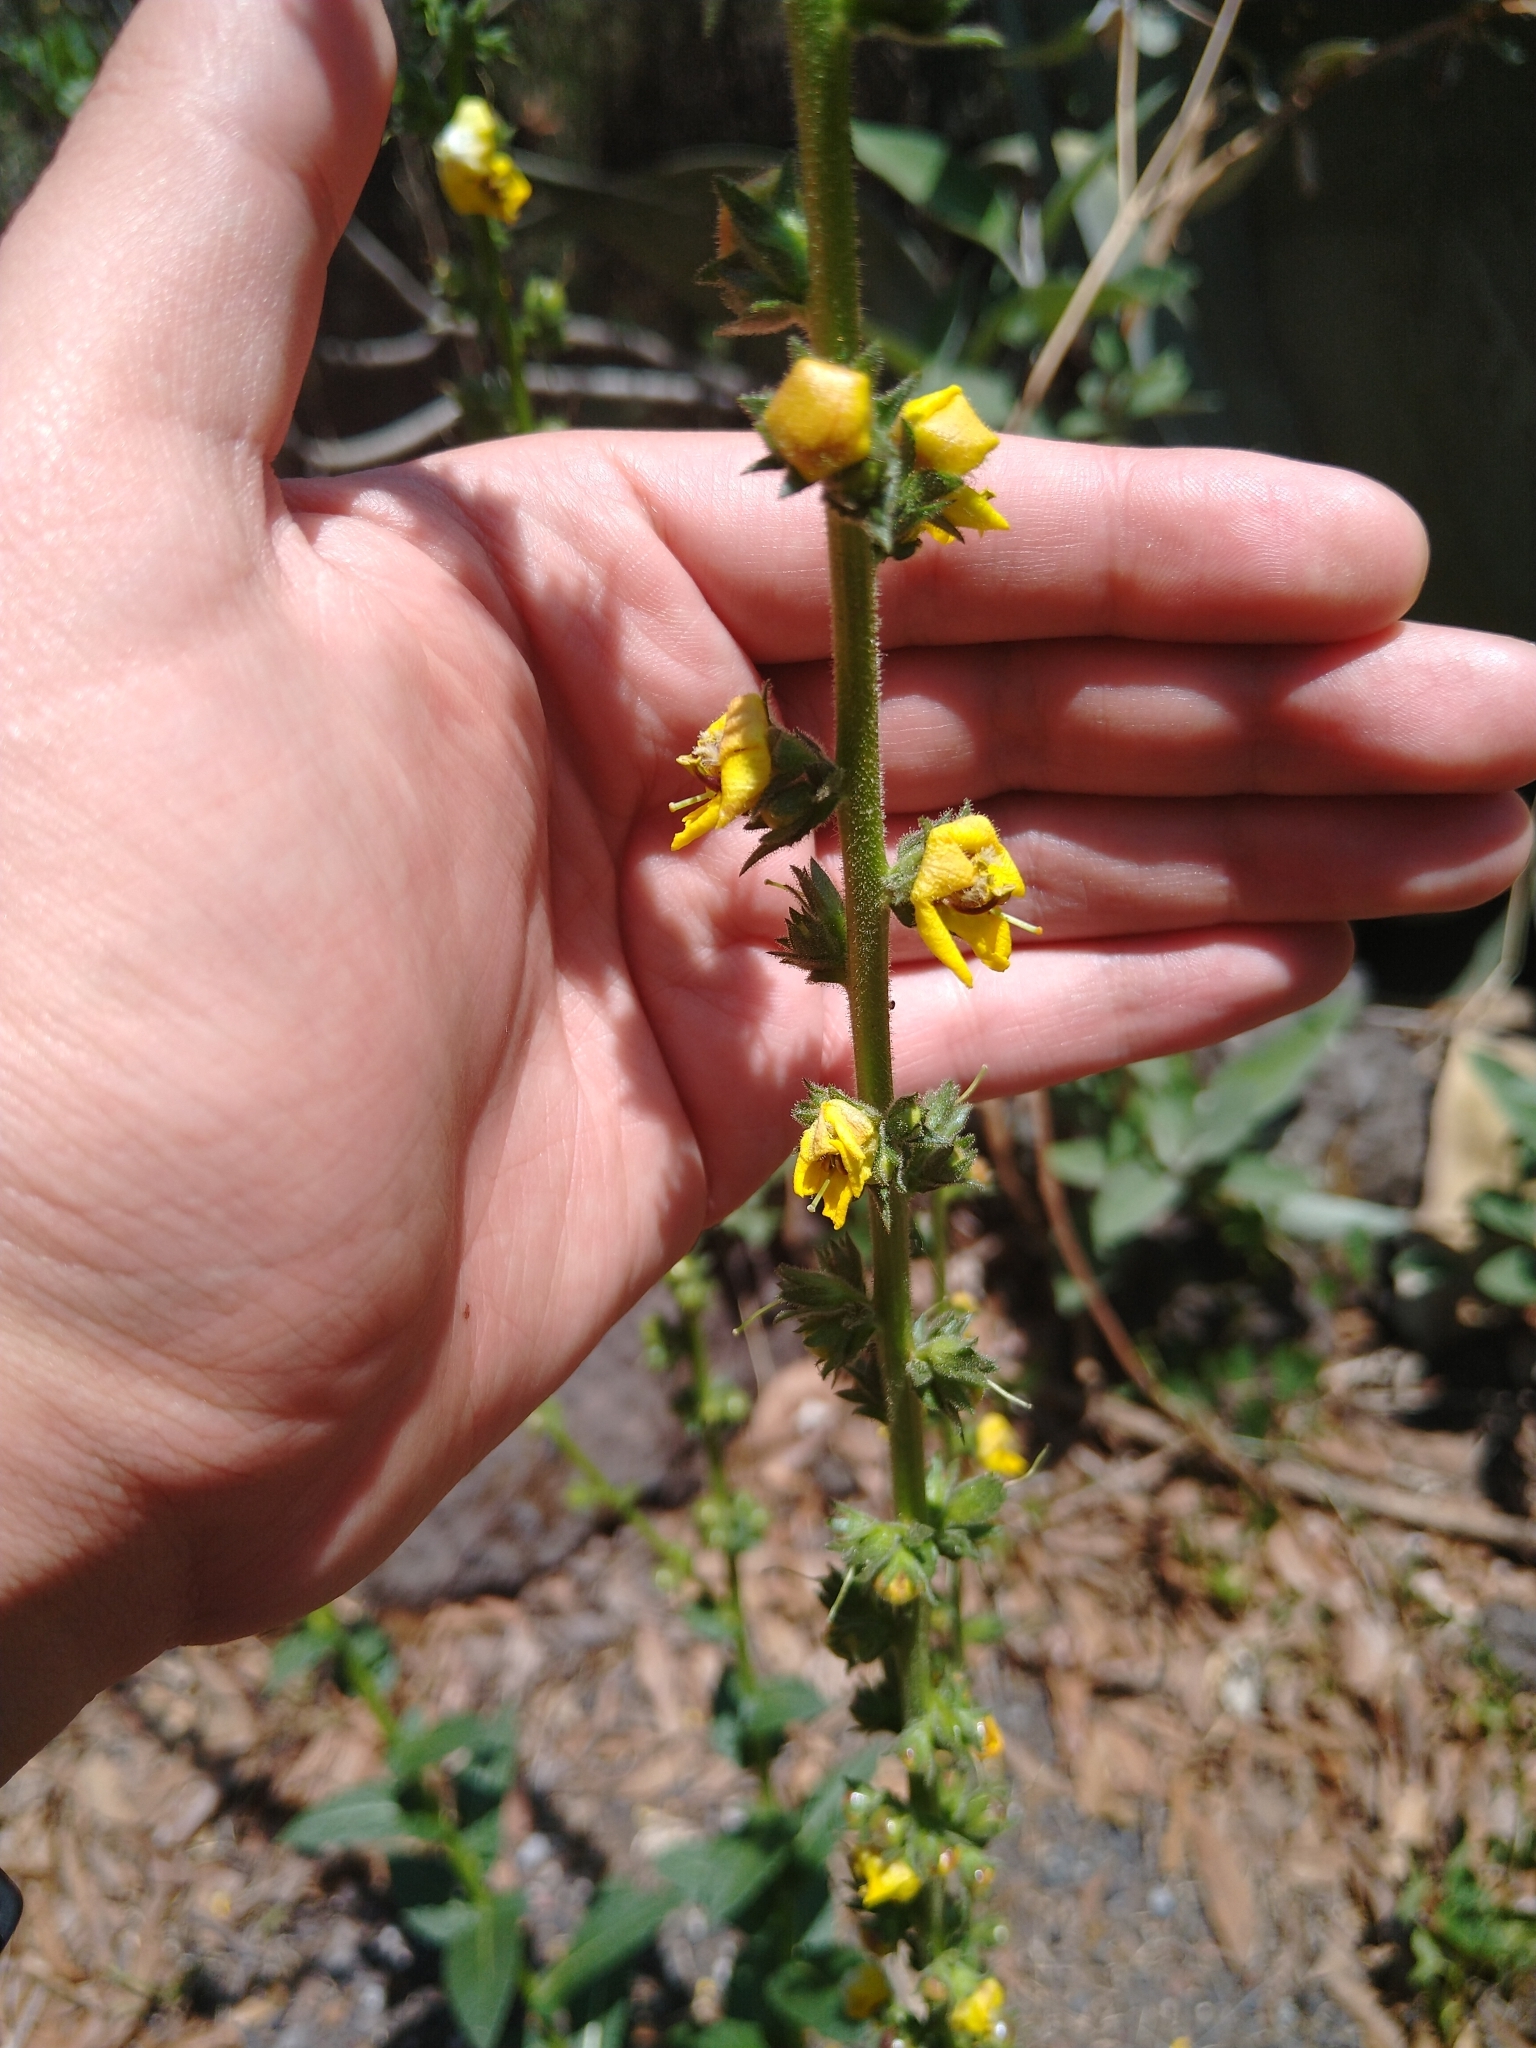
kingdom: Plantae
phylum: Tracheophyta
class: Magnoliopsida
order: Lamiales
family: Scrophulariaceae
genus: Verbascum
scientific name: Verbascum virgatum
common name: Twiggy mullein
